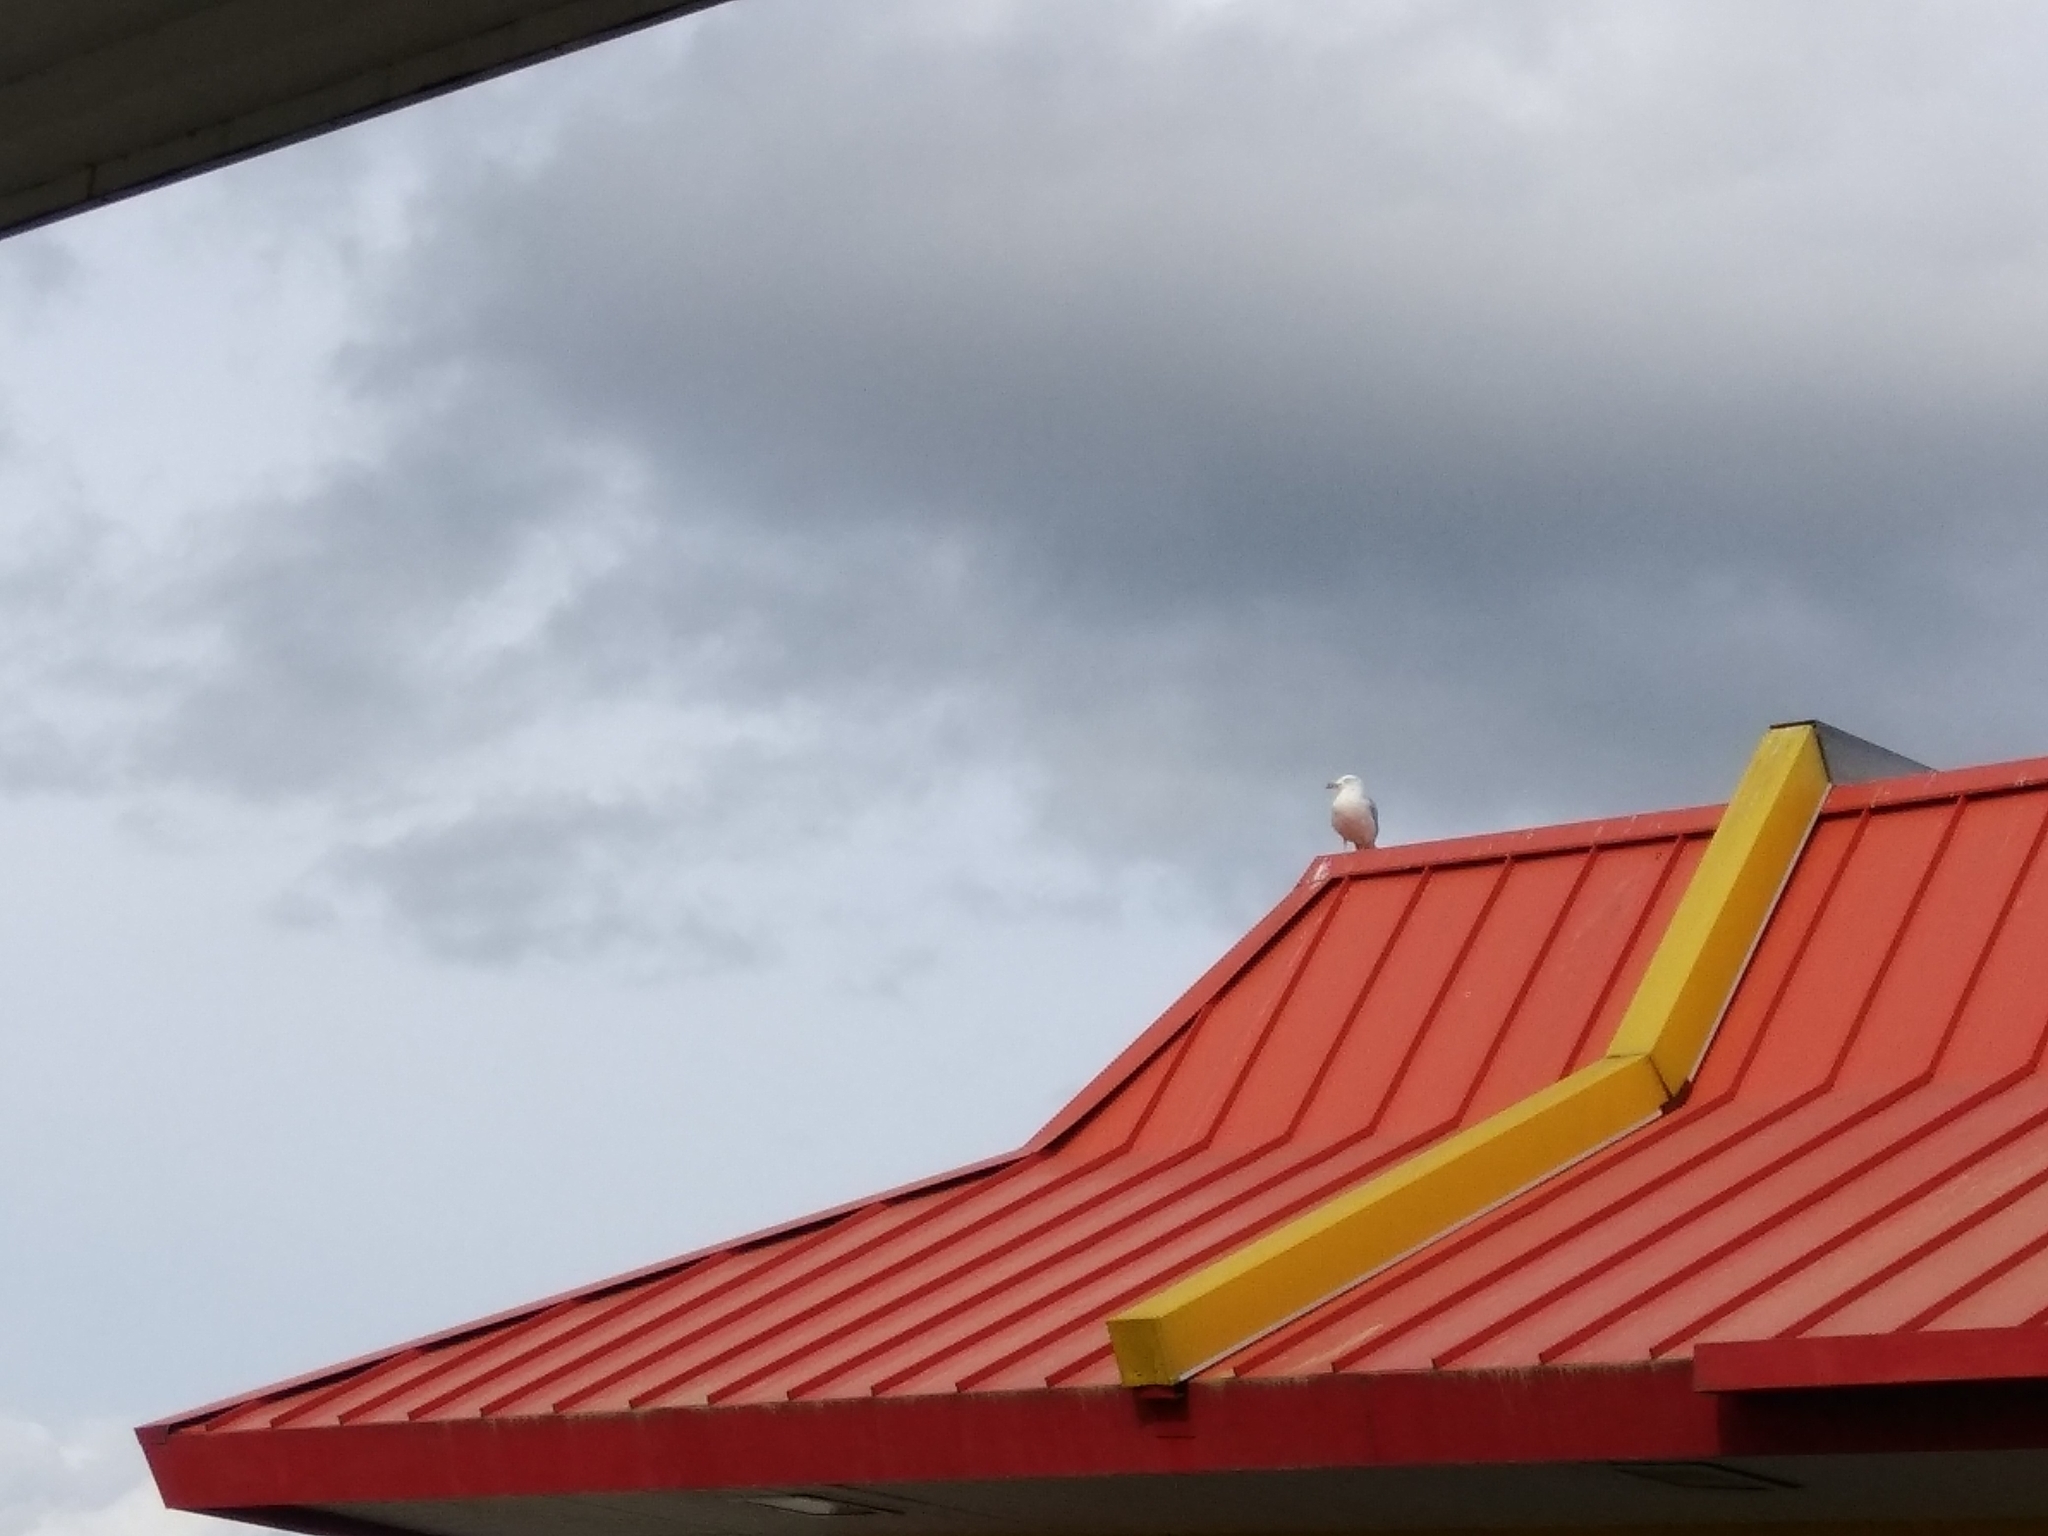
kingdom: Animalia
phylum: Chordata
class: Aves
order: Charadriiformes
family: Laridae
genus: Larus
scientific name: Larus delawarensis
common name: Ring-billed gull
